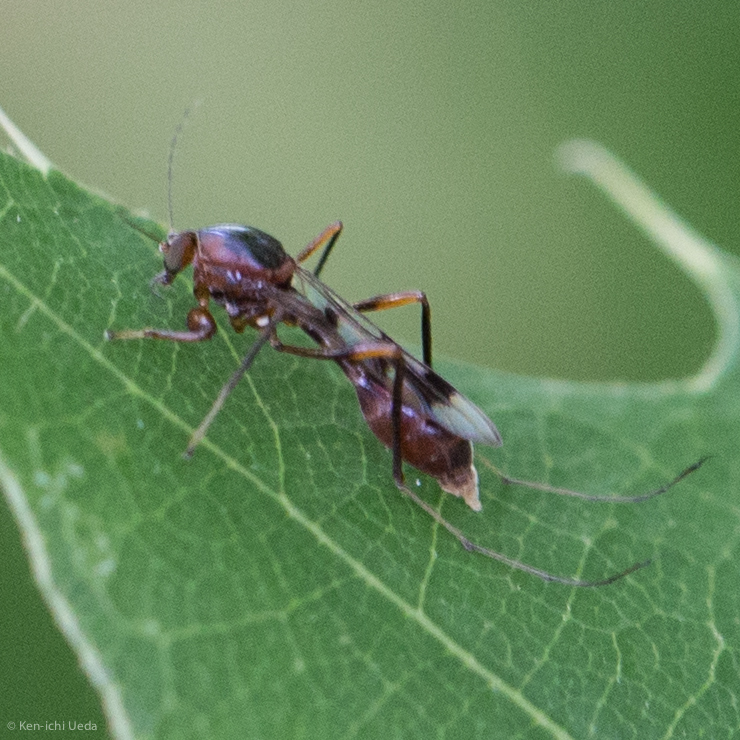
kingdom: Animalia
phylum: Arthropoda
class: Insecta
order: Diptera
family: Ceratopogonidae
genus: Heteromyia
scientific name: Heteromyia prattii
